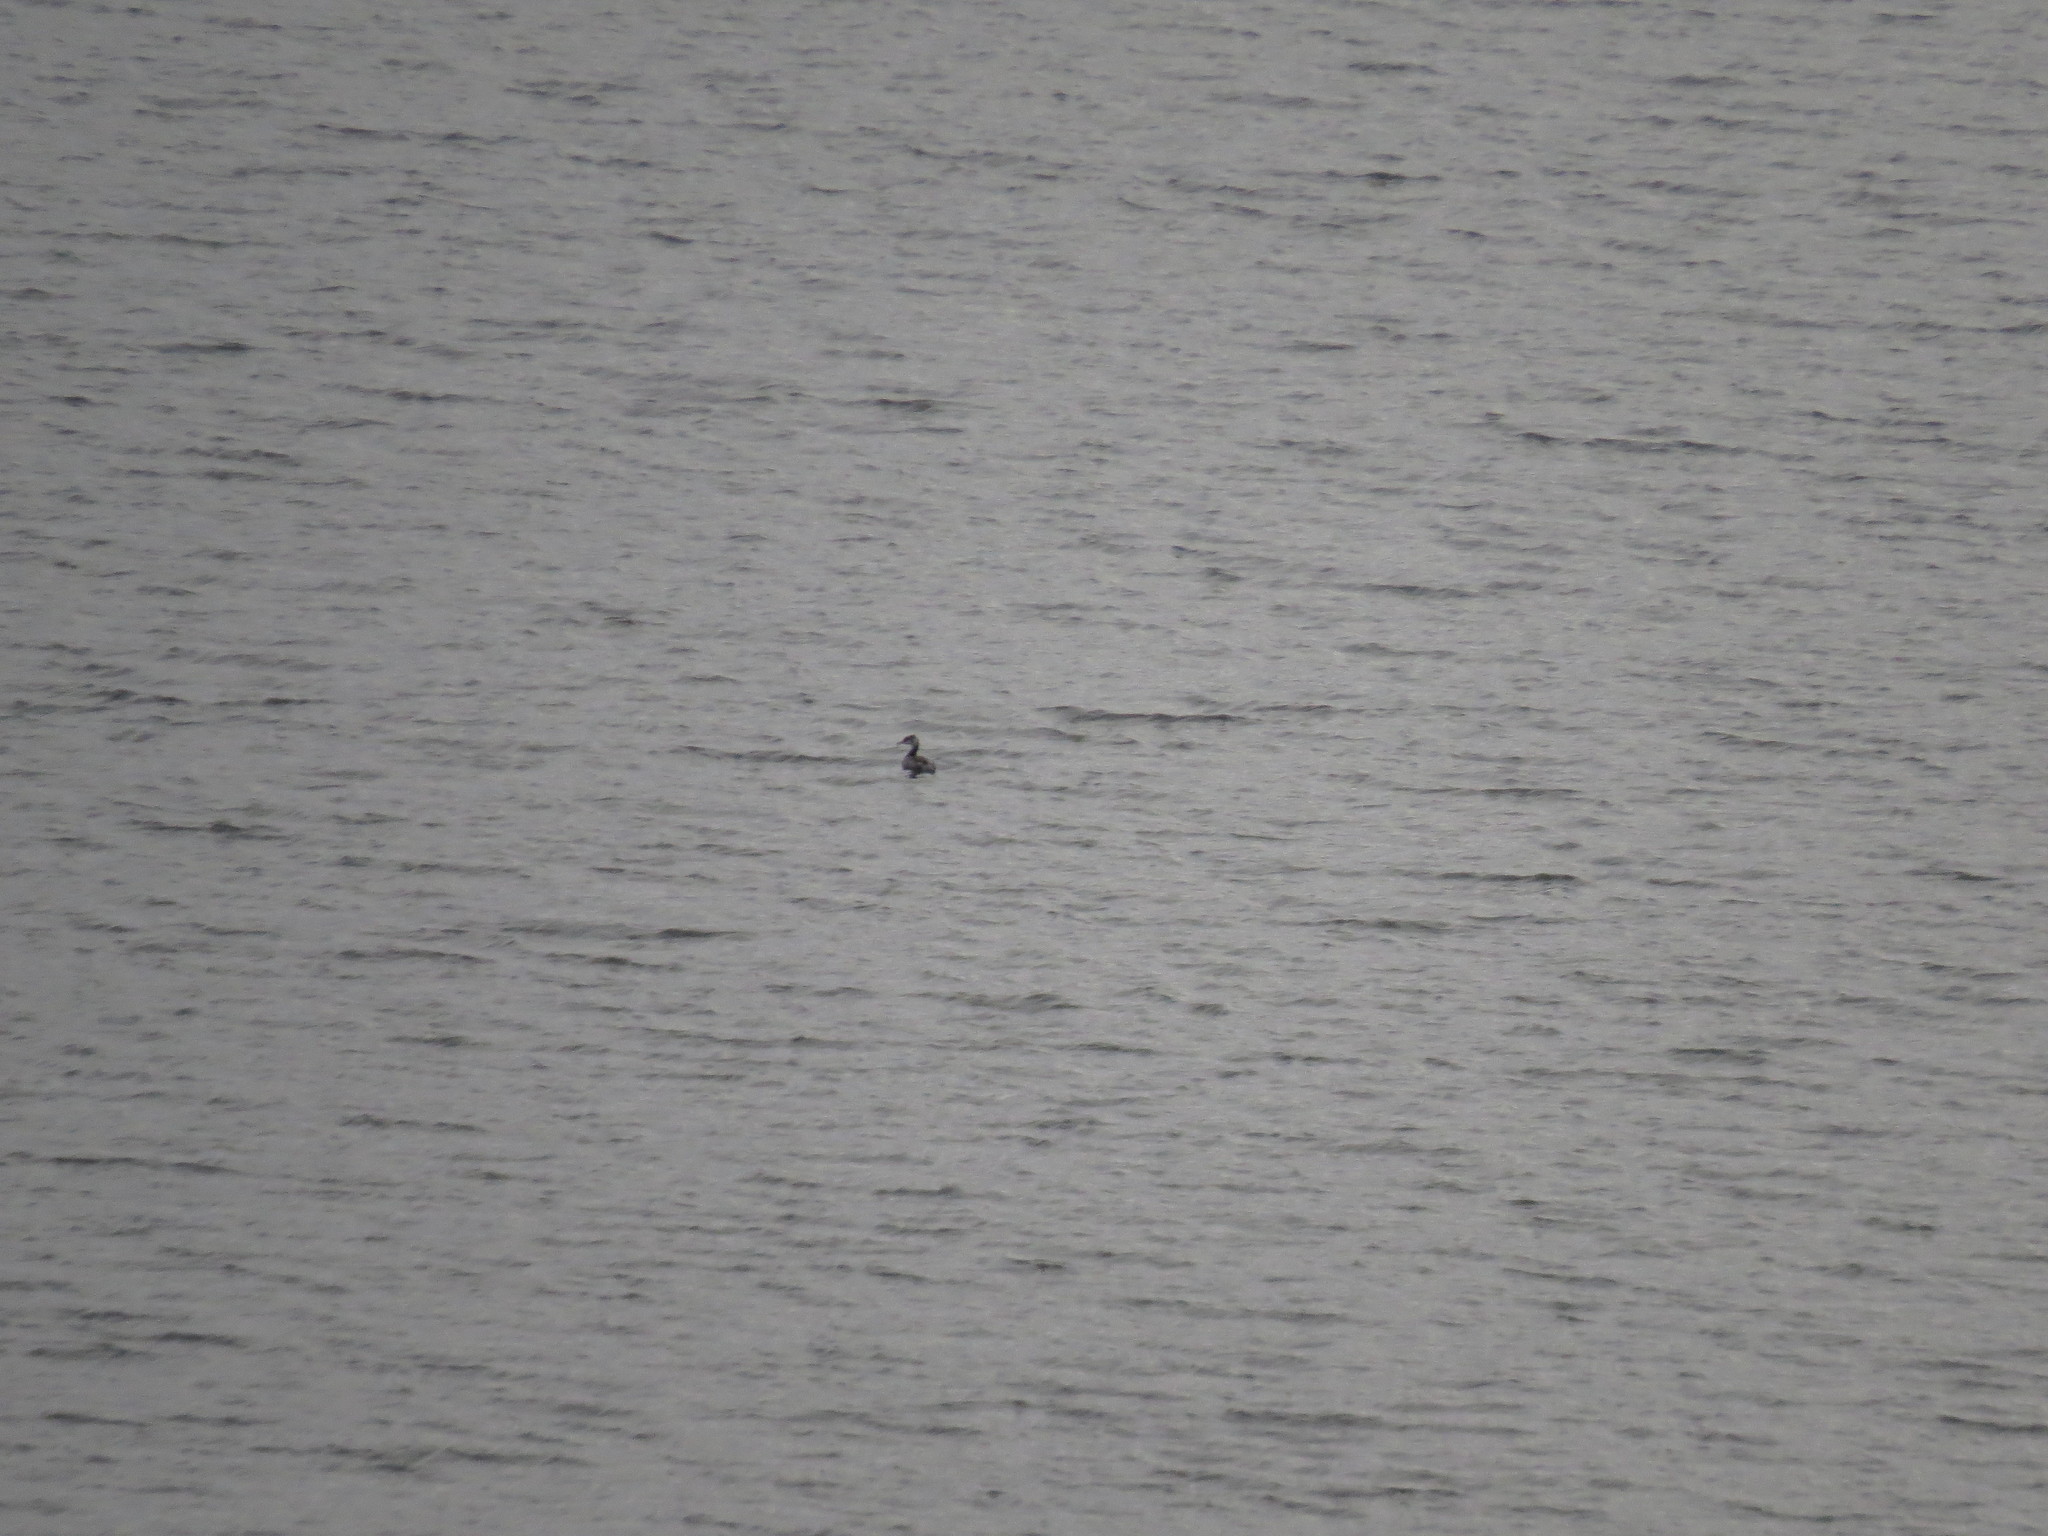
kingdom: Animalia
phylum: Chordata
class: Aves
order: Podicipediformes
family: Podicipedidae
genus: Podiceps
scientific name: Podiceps cristatus
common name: Great crested grebe
